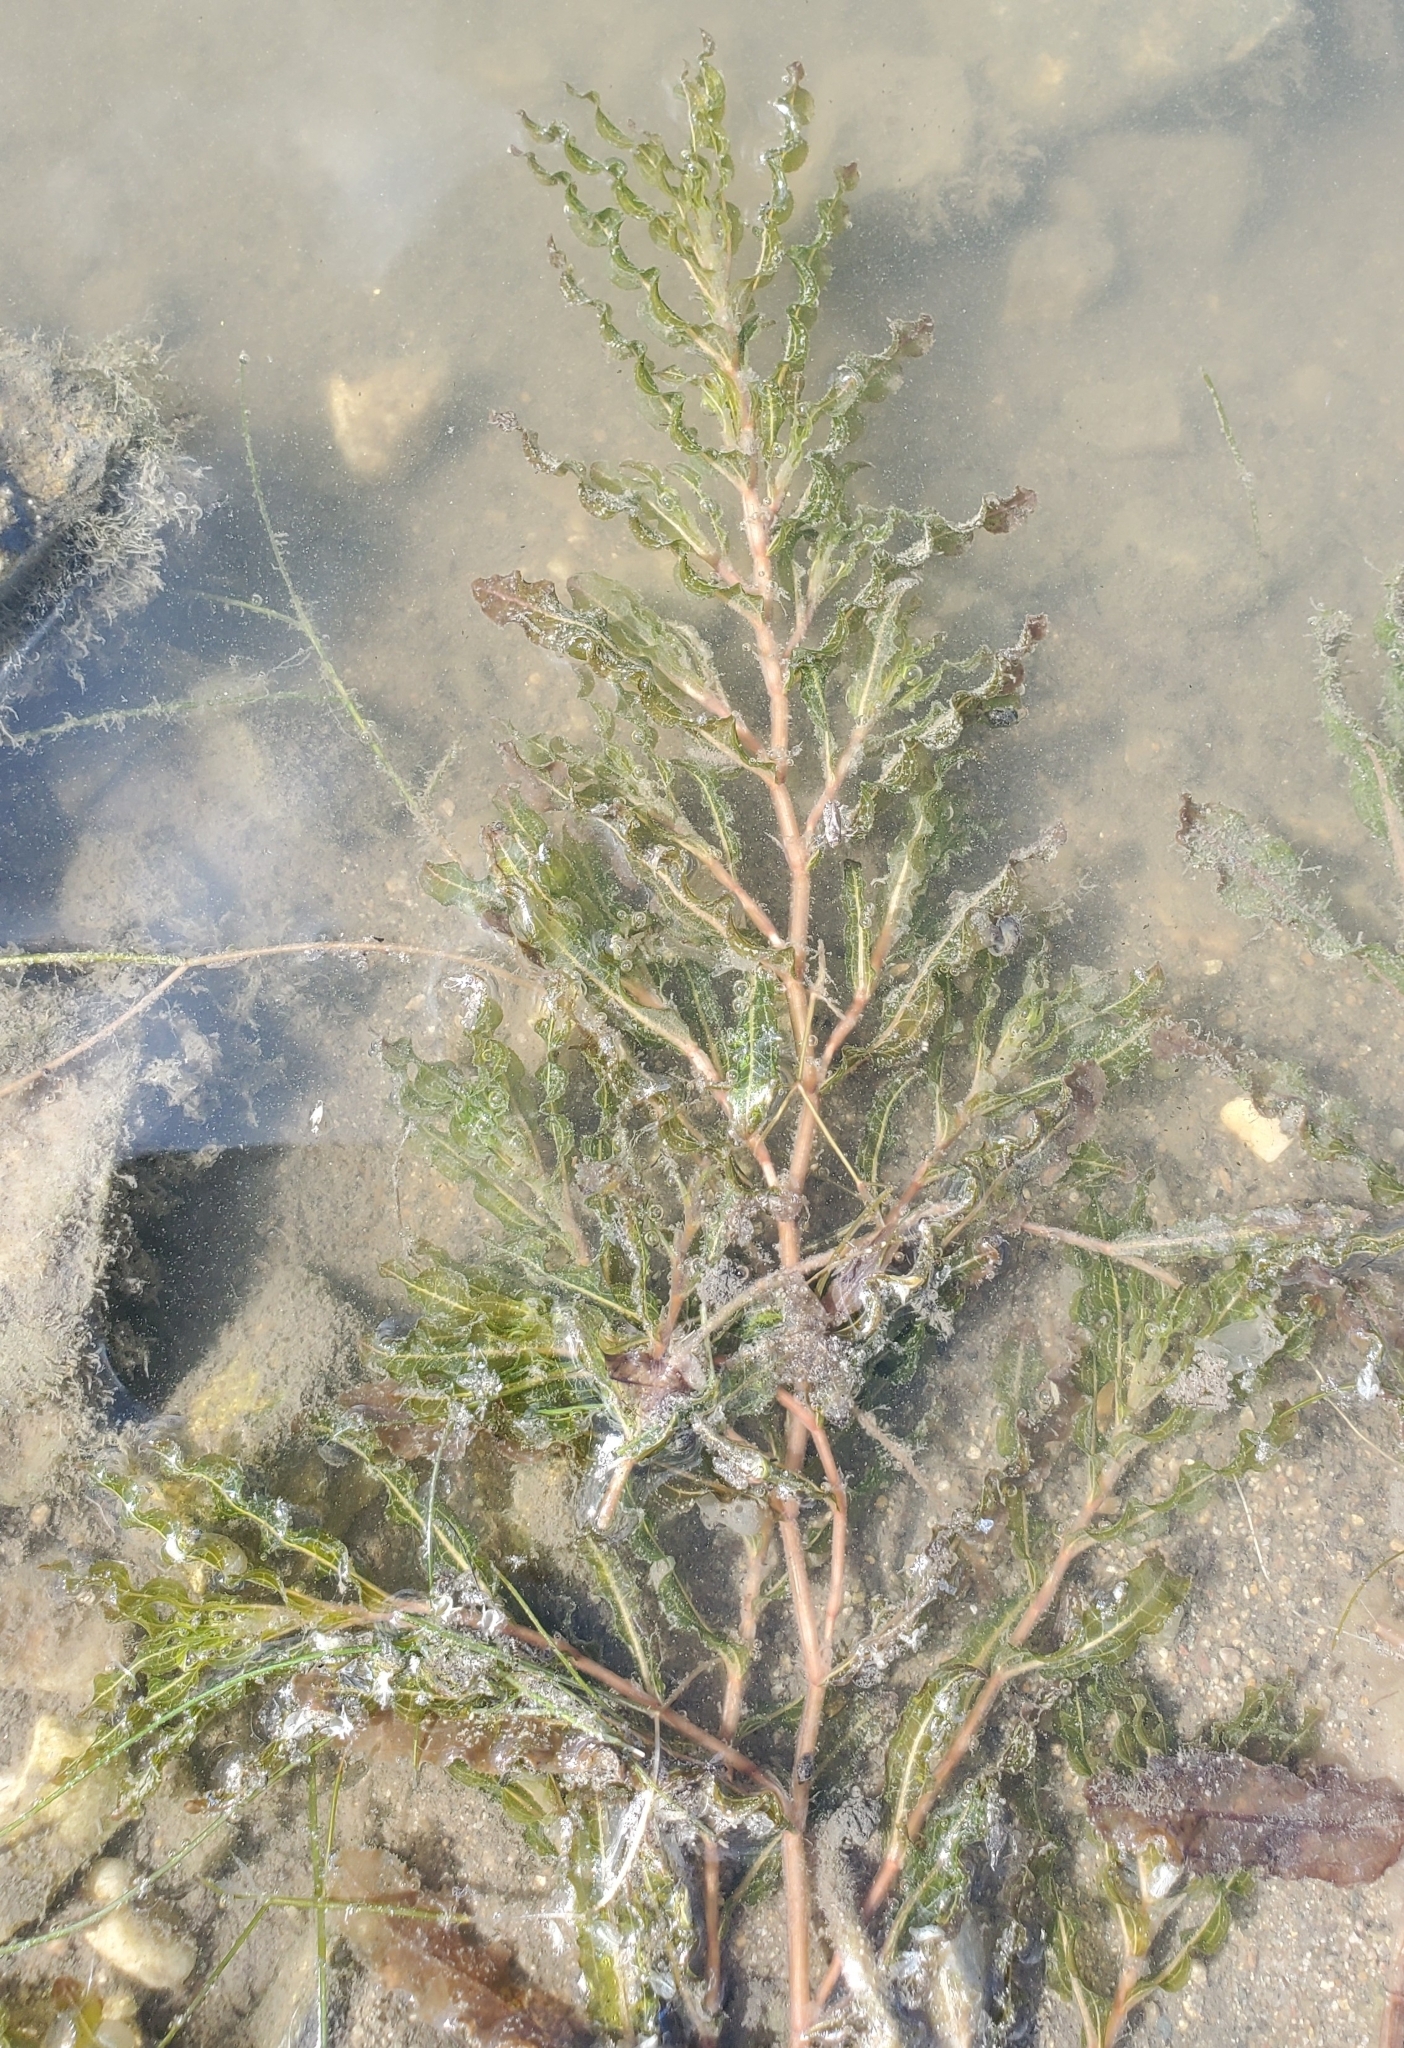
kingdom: Plantae
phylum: Tracheophyta
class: Liliopsida
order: Alismatales
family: Potamogetonaceae
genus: Potamogeton
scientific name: Potamogeton crispus
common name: Curled pondweed
